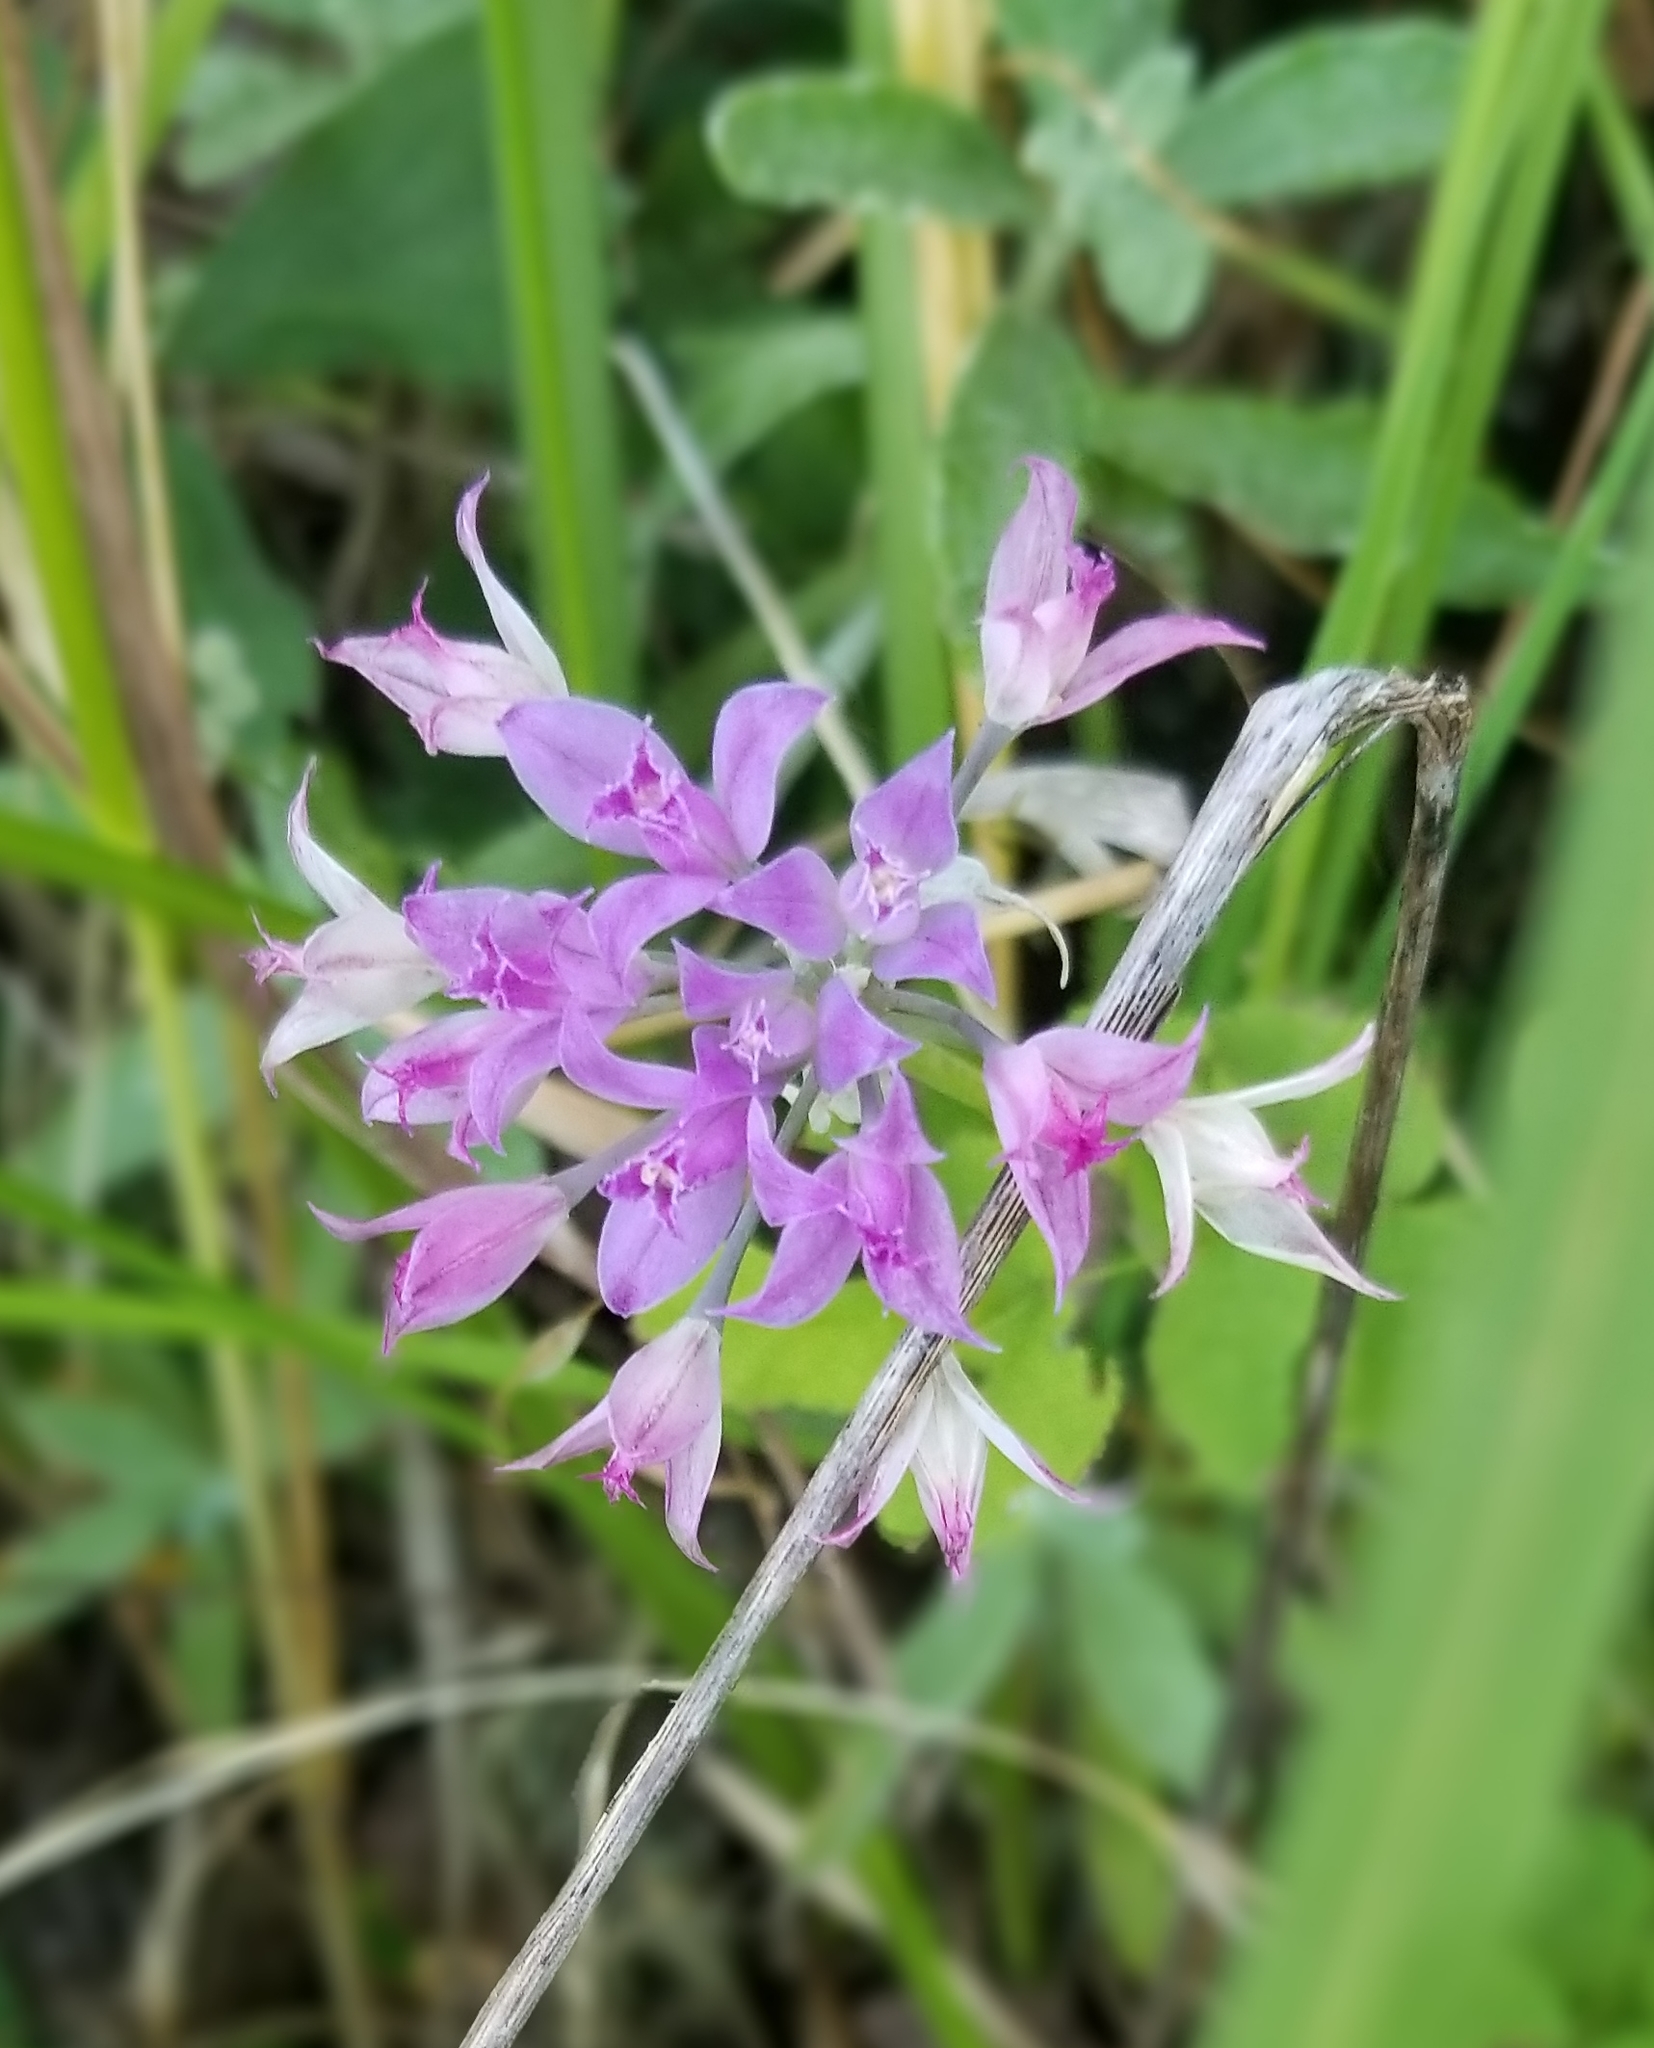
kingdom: Plantae
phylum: Tracheophyta
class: Liliopsida
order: Asparagales
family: Amaryllidaceae
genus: Allium
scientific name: Allium acuminatum
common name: Hooker's onion
